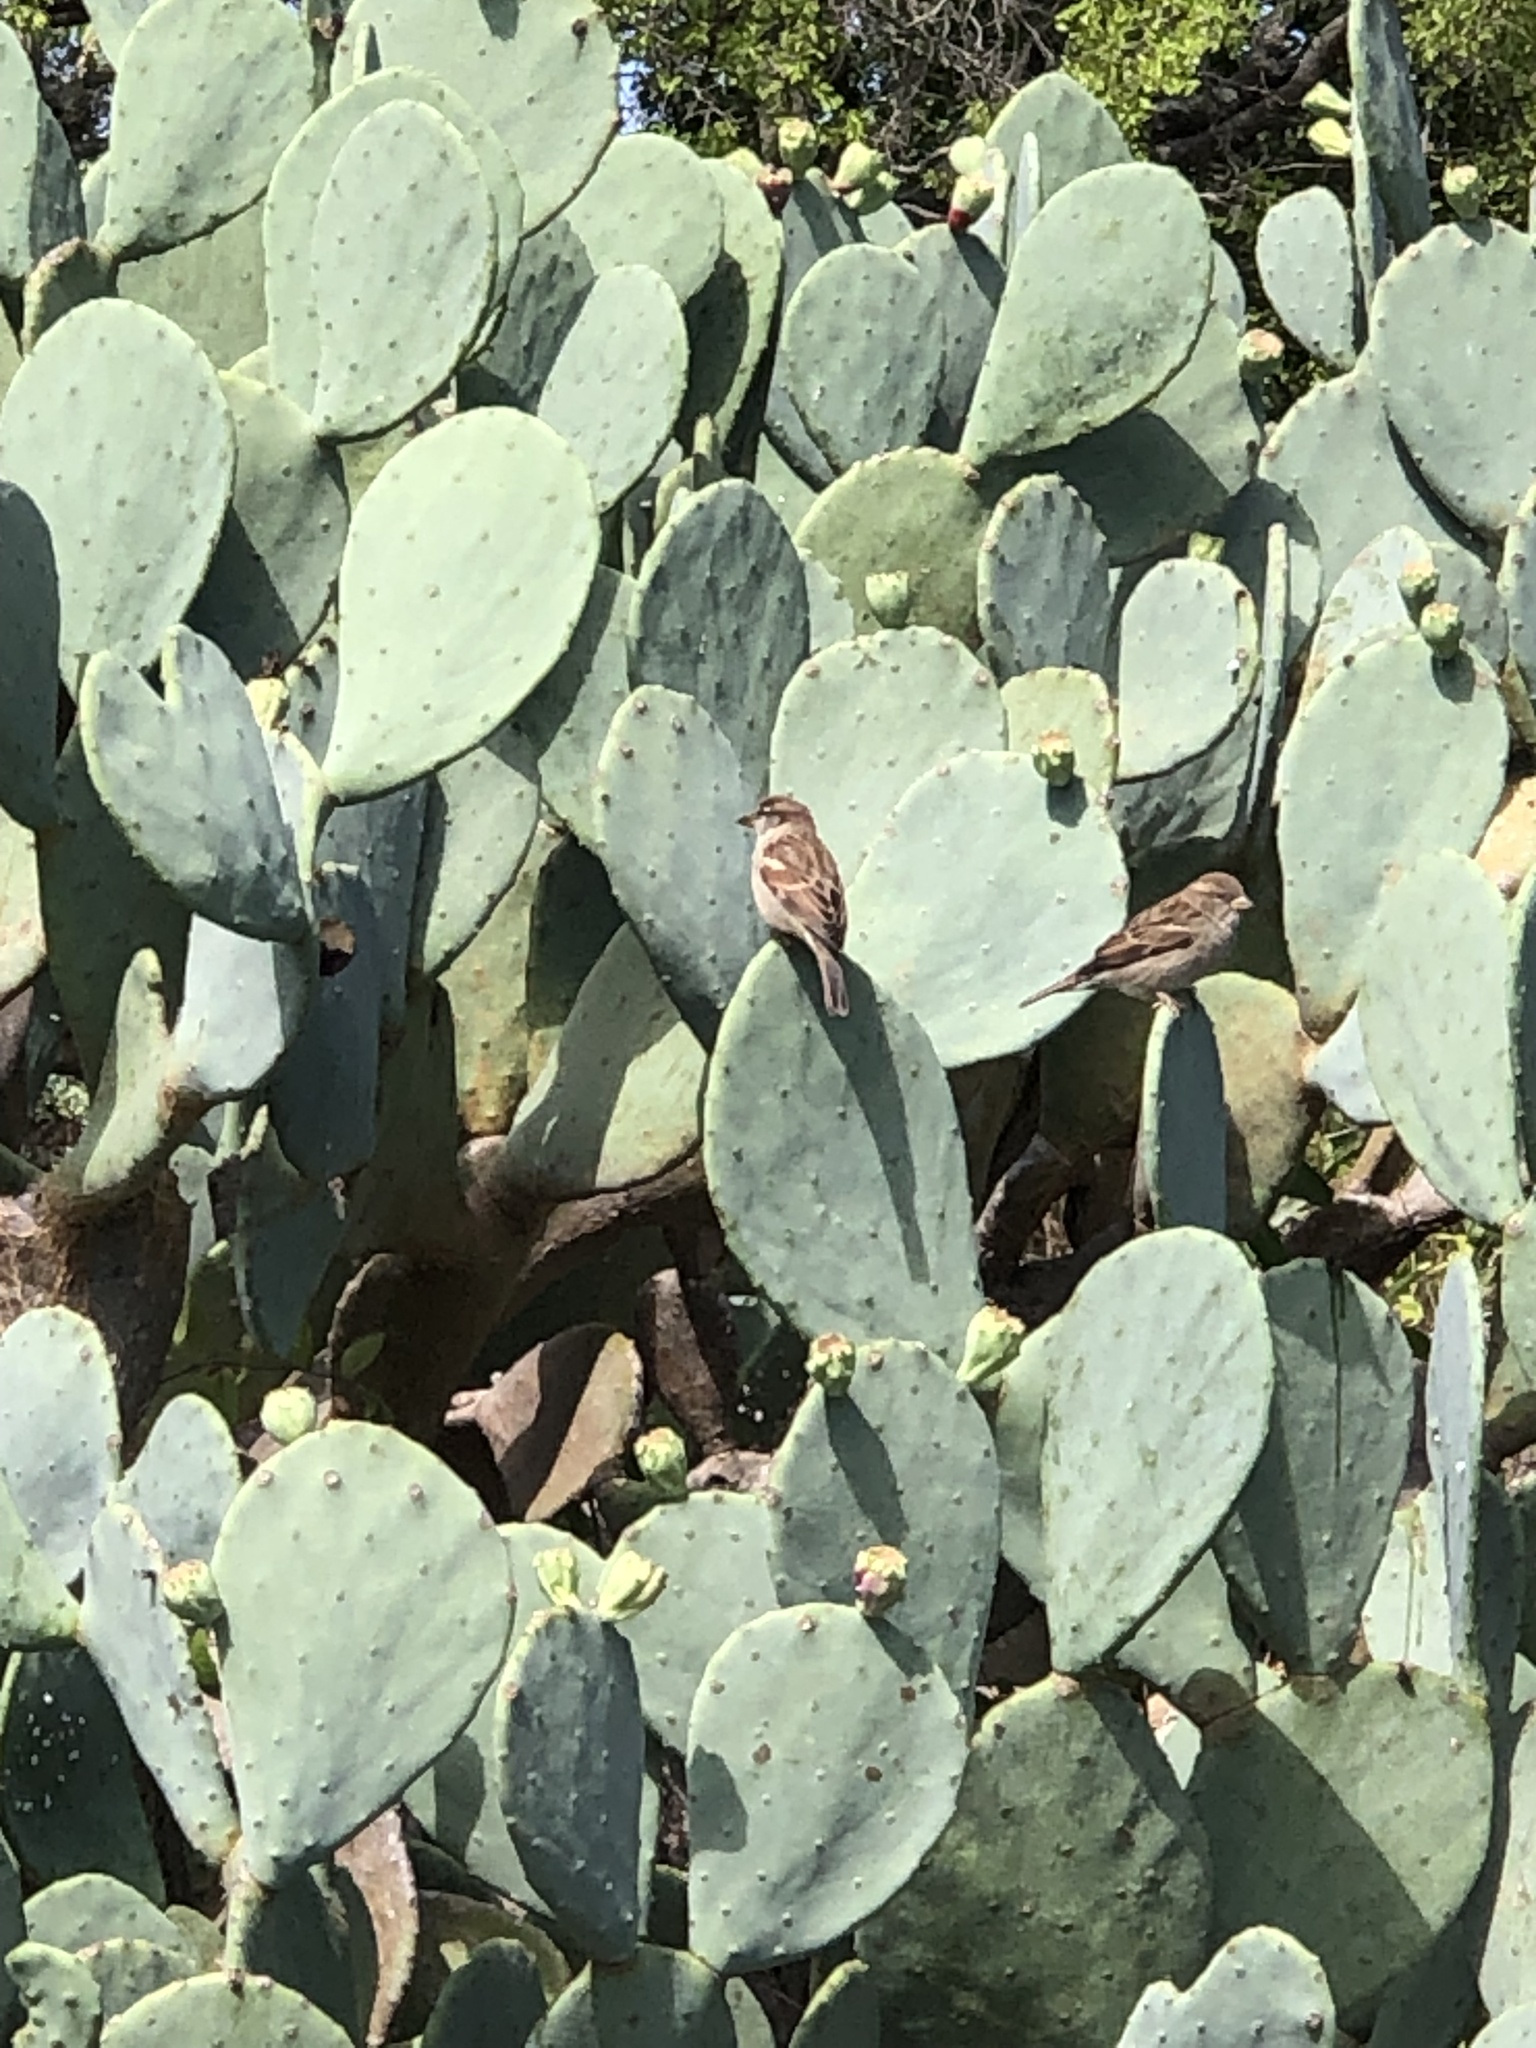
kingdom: Animalia
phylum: Chordata
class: Aves
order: Passeriformes
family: Passeridae
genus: Passer
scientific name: Passer domesticus
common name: House sparrow
